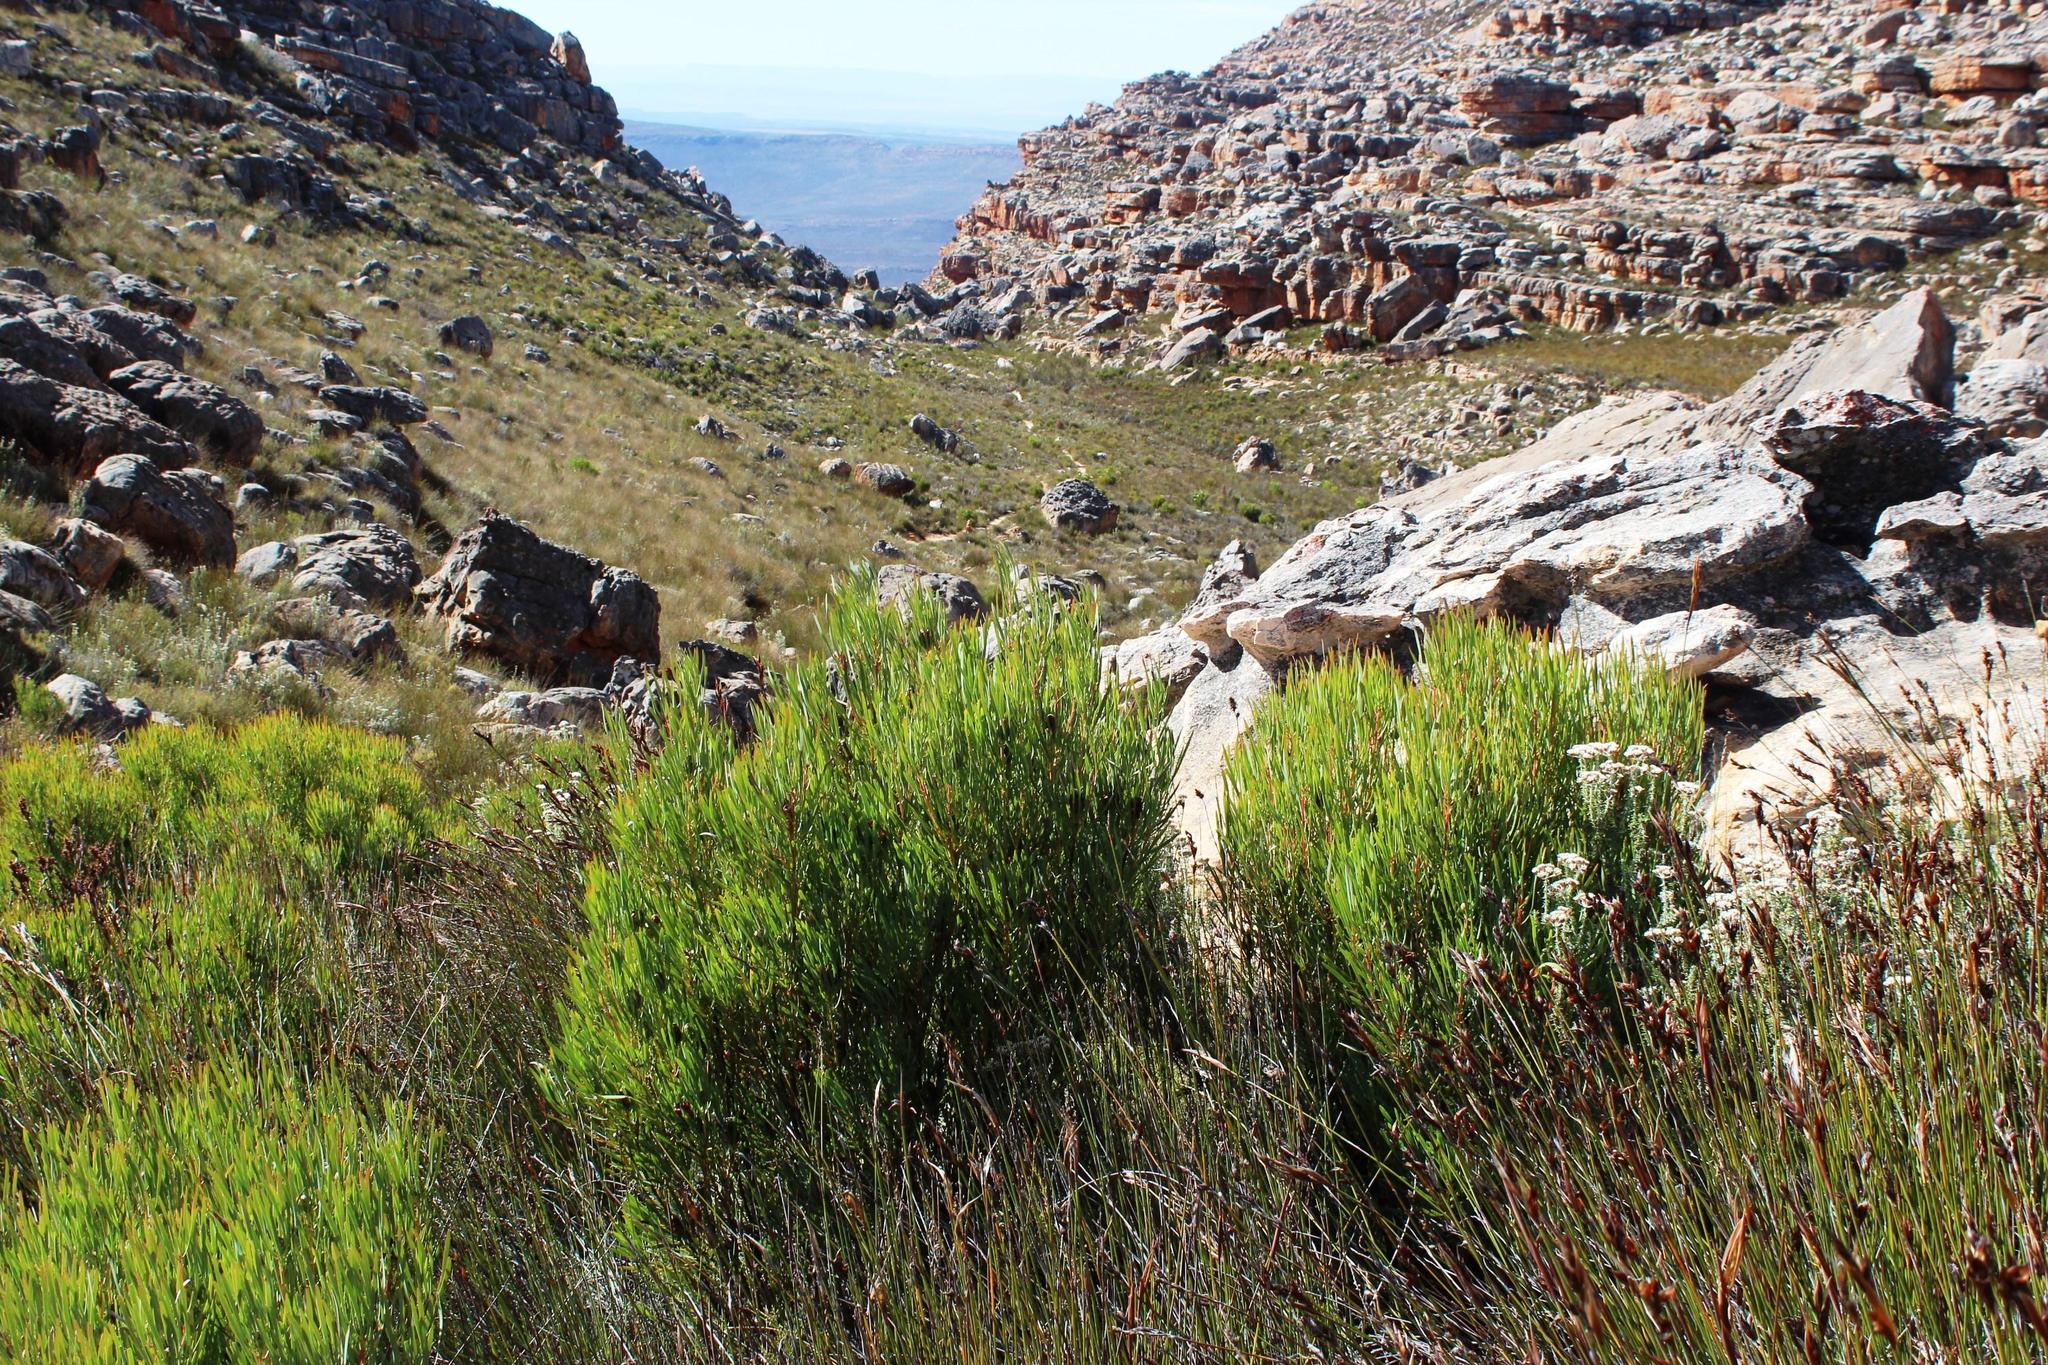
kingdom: Plantae
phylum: Tracheophyta
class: Magnoliopsida
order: Proteales
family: Proteaceae
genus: Protea
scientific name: Protea acuminata
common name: Black-rim sugarbush
